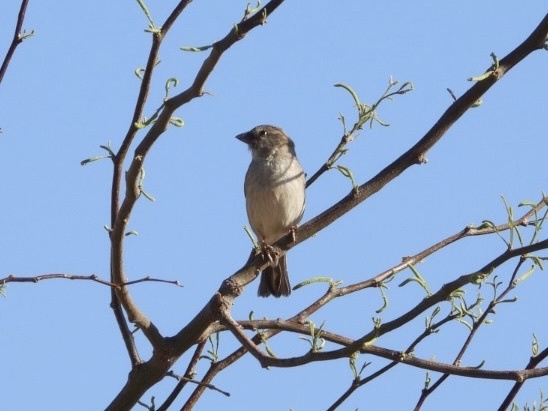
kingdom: Animalia
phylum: Chordata
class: Aves
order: Passeriformes
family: Passeridae
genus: Passer
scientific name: Passer domesticus
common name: House sparrow
